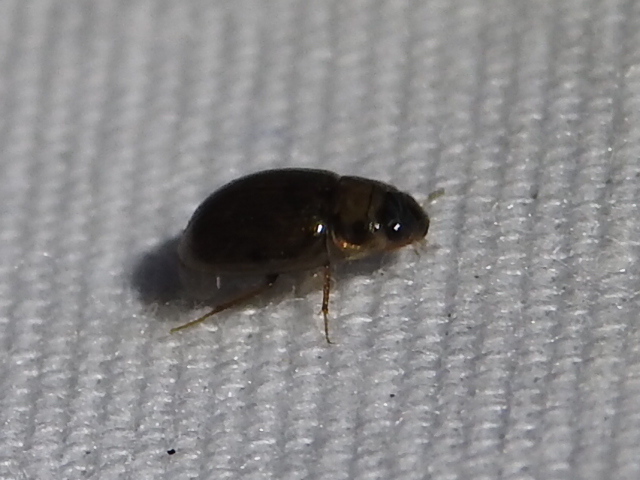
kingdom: Animalia
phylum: Arthropoda
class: Insecta
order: Coleoptera
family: Hydrophilidae
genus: Enochrus
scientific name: Enochrus
